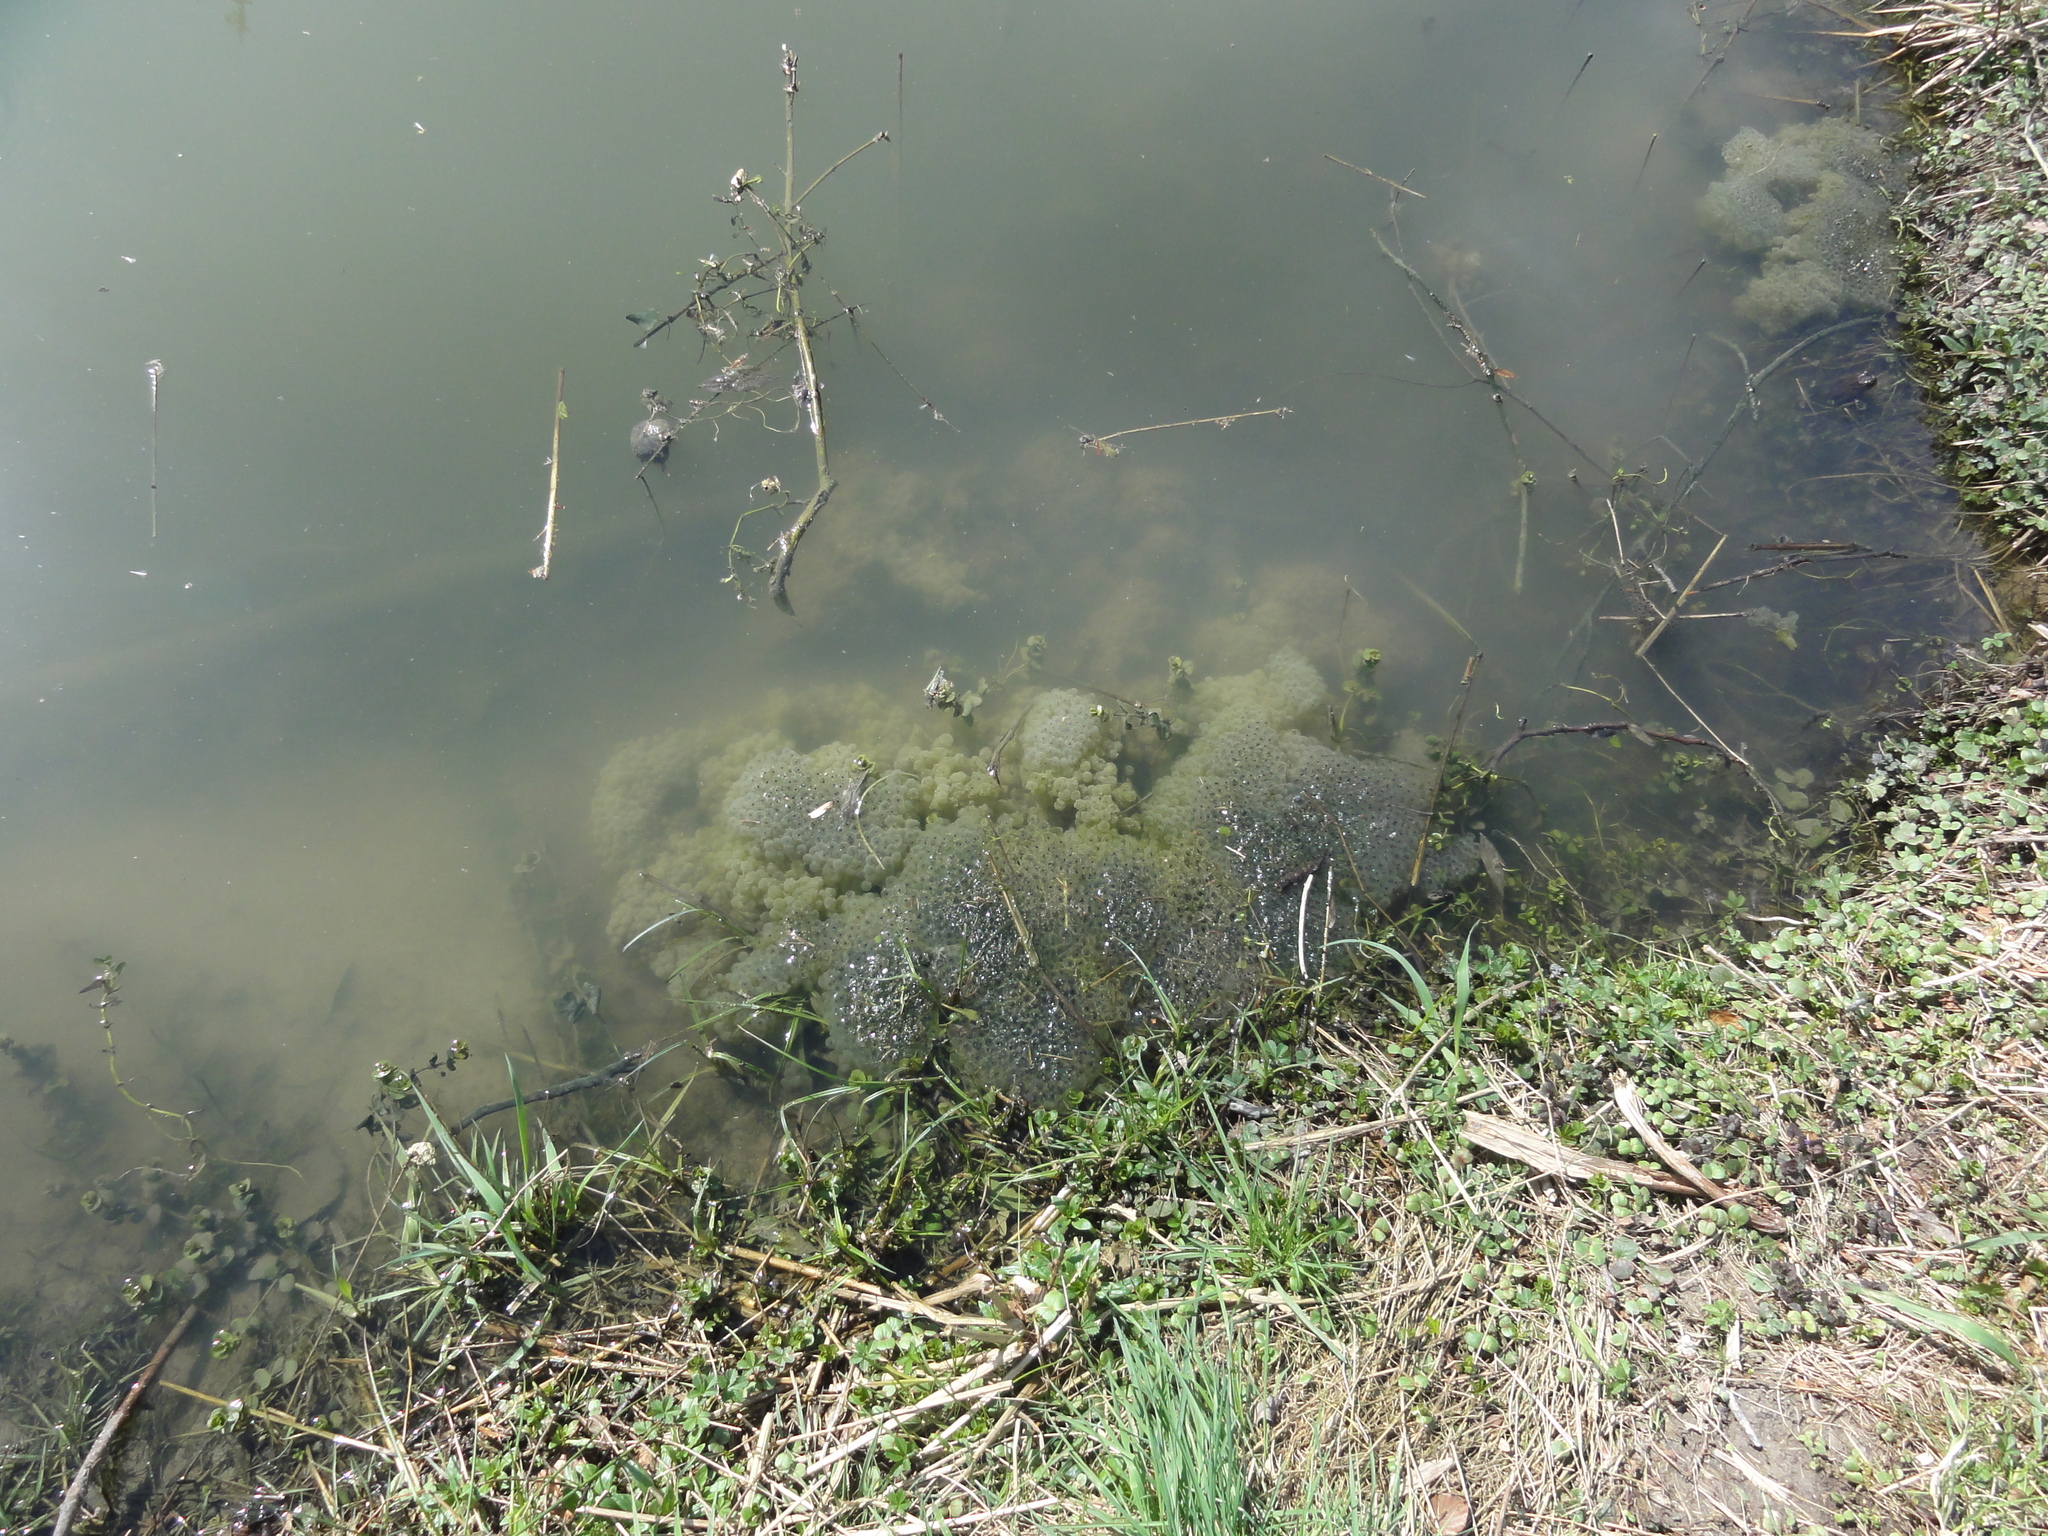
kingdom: Animalia
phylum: Chordata
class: Amphibia
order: Anura
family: Ranidae
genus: Rana
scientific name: Rana temporaria
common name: Common frog
